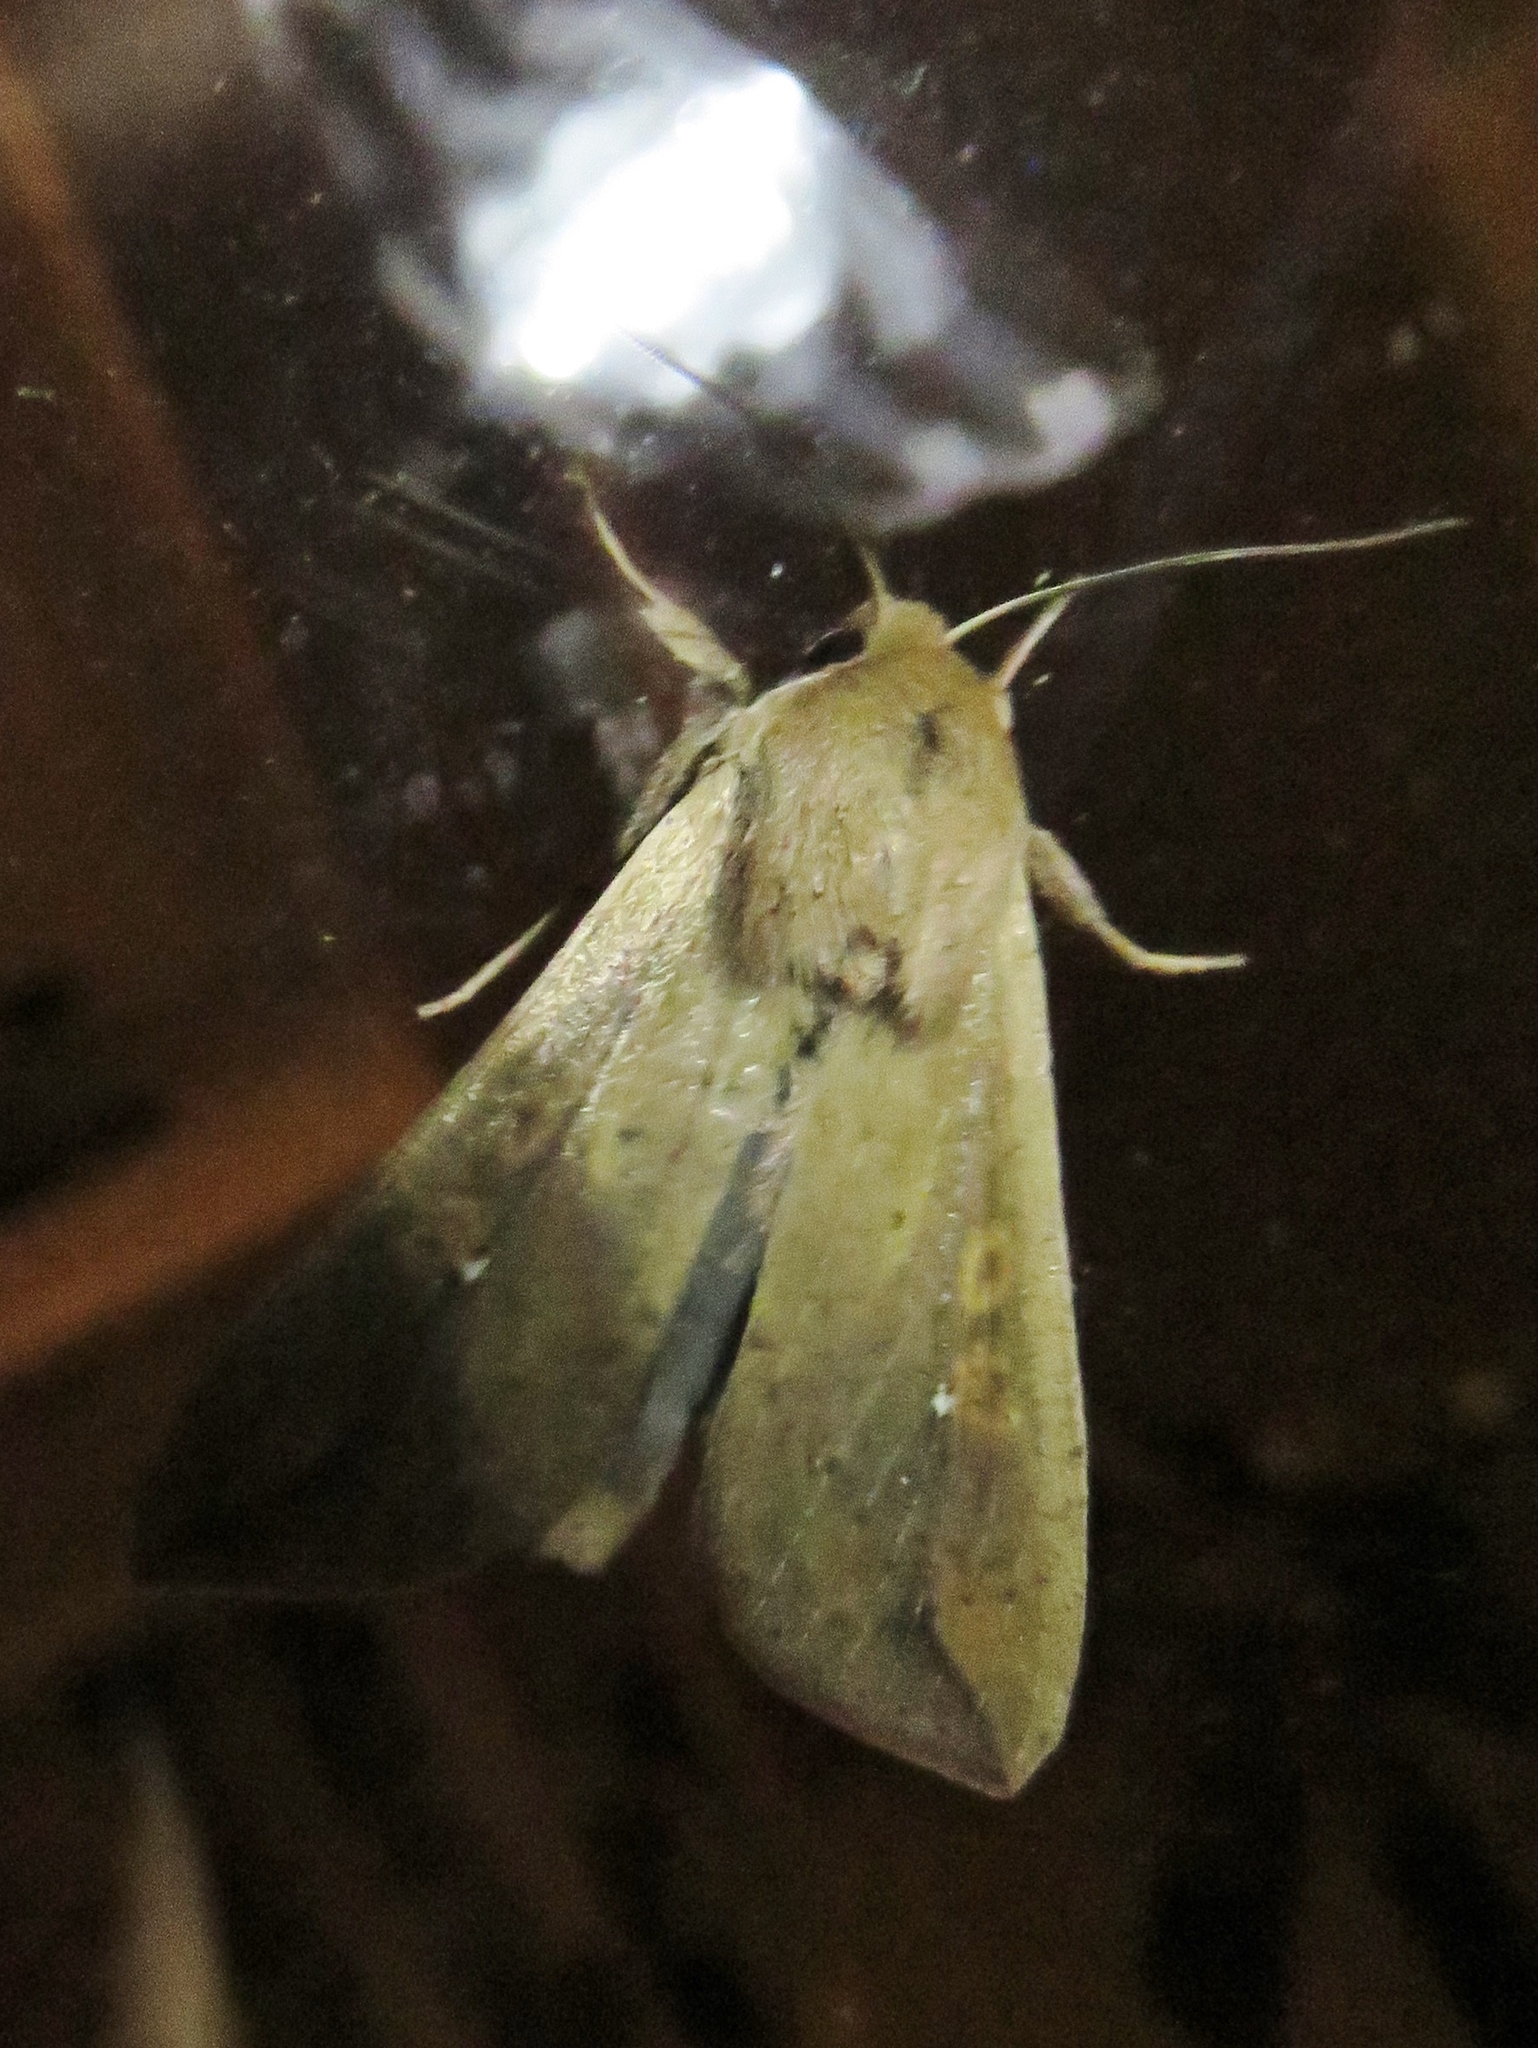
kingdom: Animalia
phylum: Arthropoda
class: Insecta
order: Lepidoptera
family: Noctuidae
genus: Mythimna
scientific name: Mythimna unipuncta
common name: White-speck
